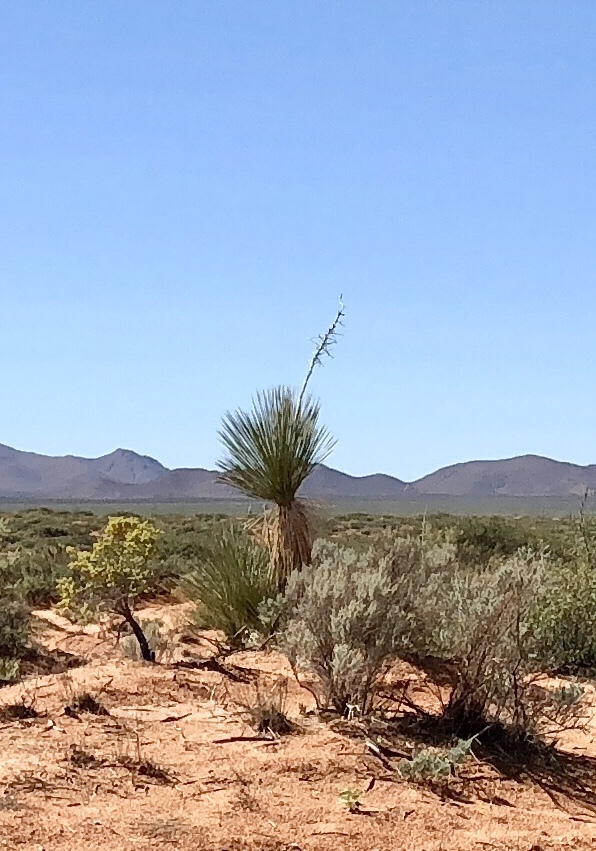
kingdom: Plantae
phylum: Tracheophyta
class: Liliopsida
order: Asparagales
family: Asparagaceae
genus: Yucca
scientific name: Yucca elata
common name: Palmella
